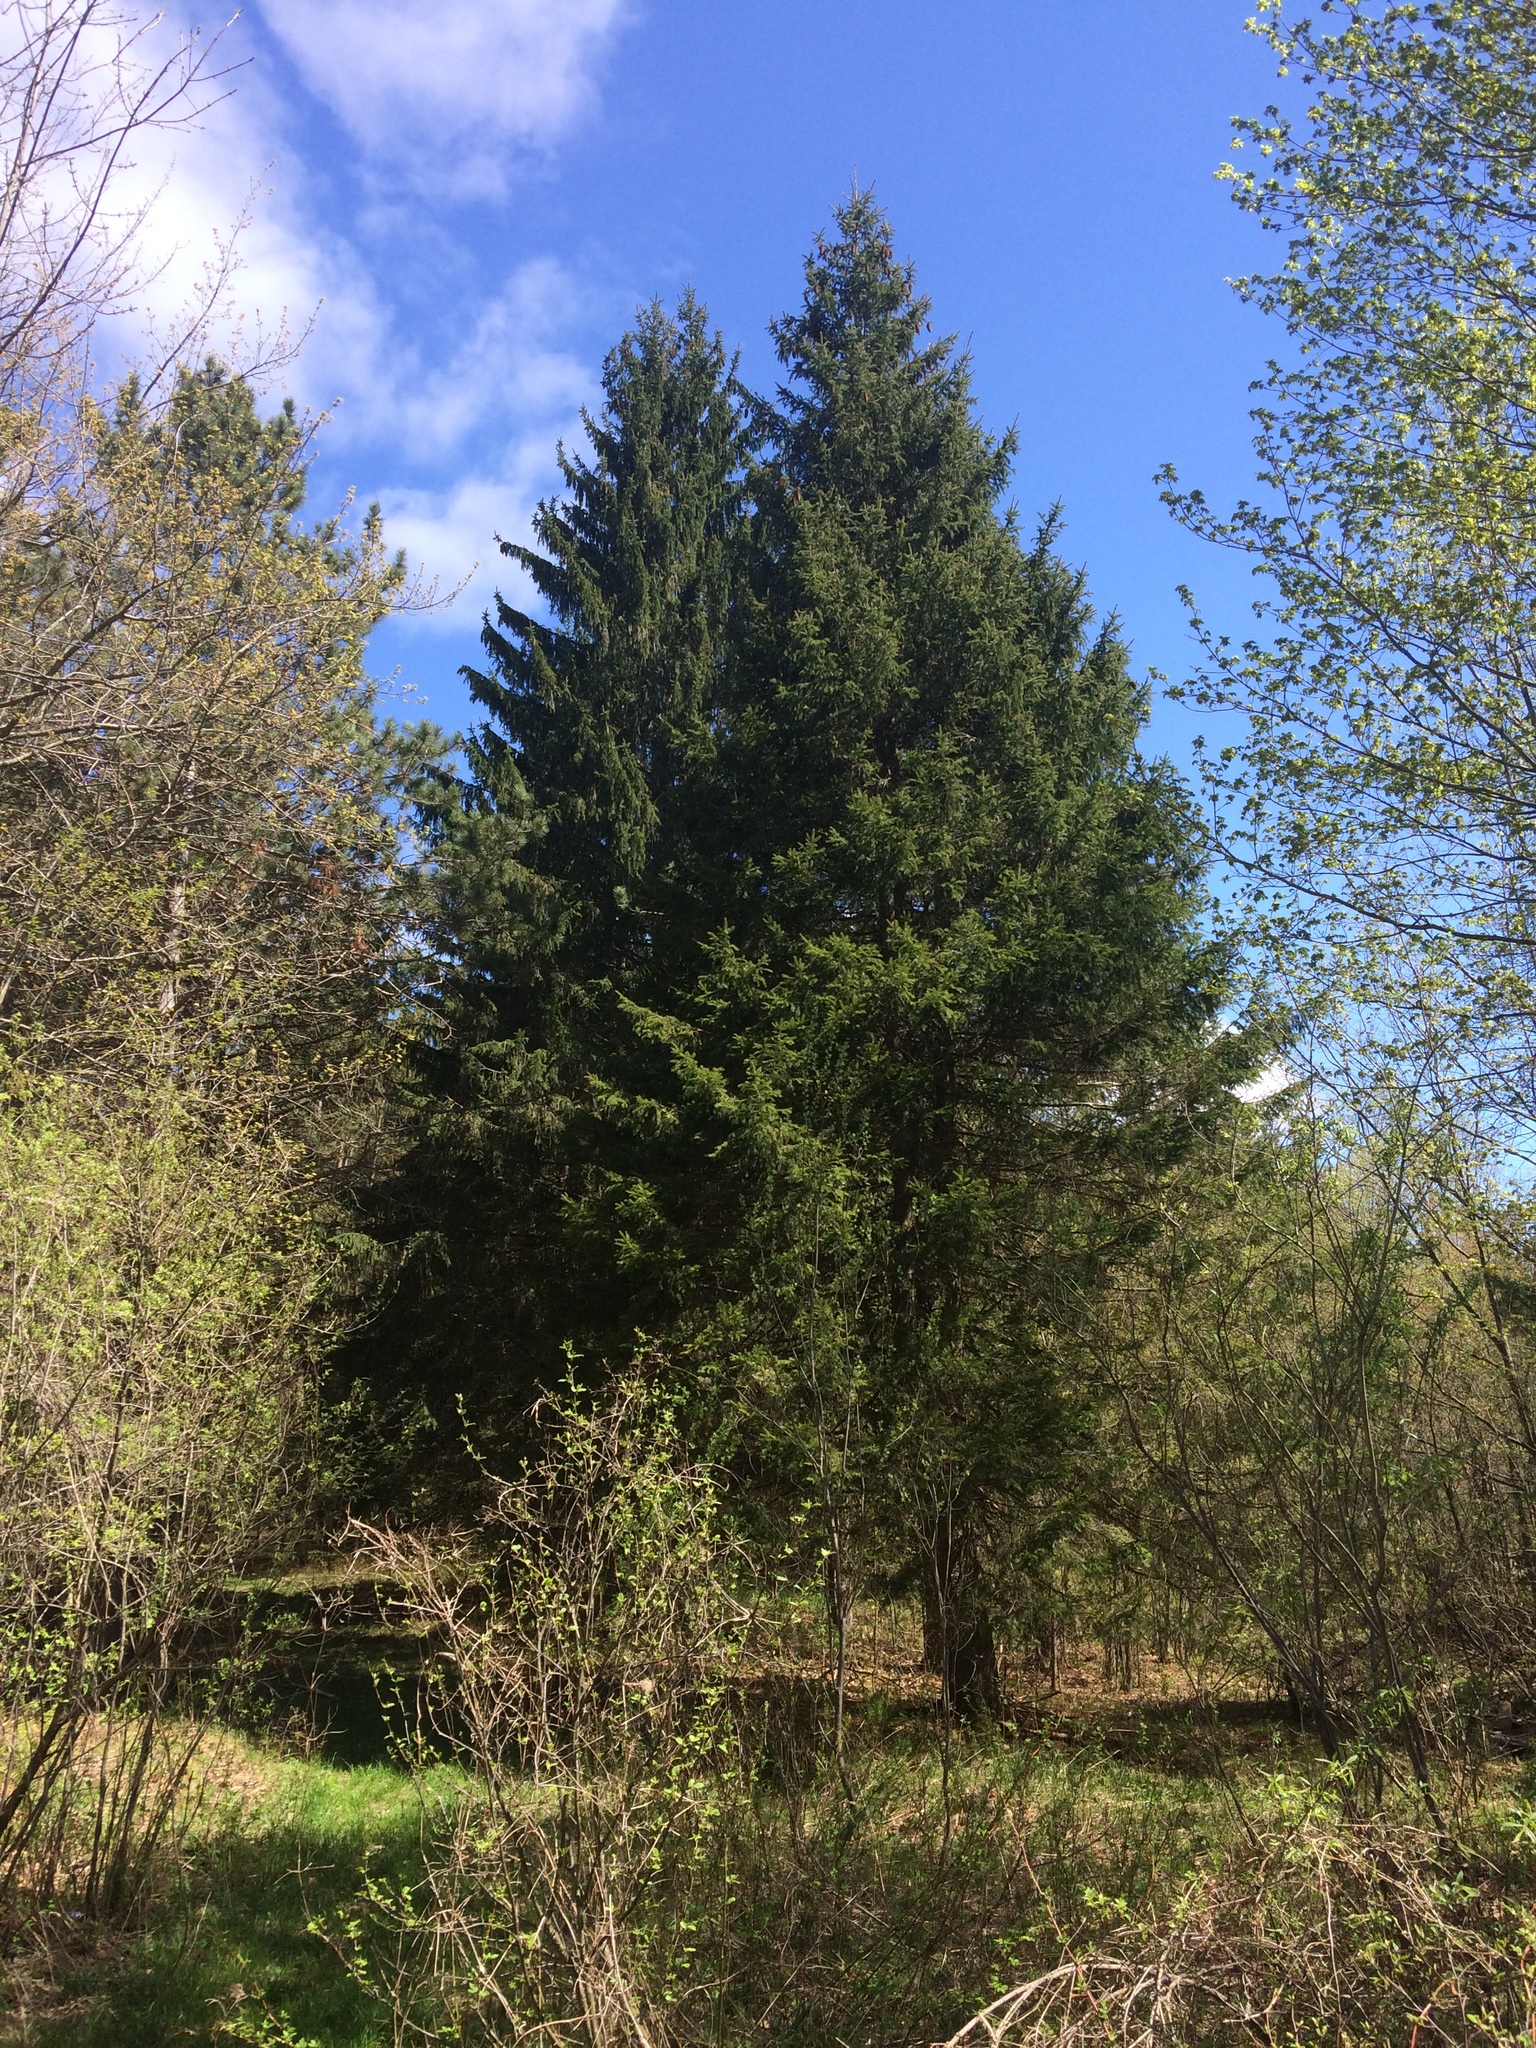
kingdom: Plantae
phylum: Tracheophyta
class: Pinopsida
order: Pinales
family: Pinaceae
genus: Picea
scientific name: Picea abies
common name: Norway spruce
